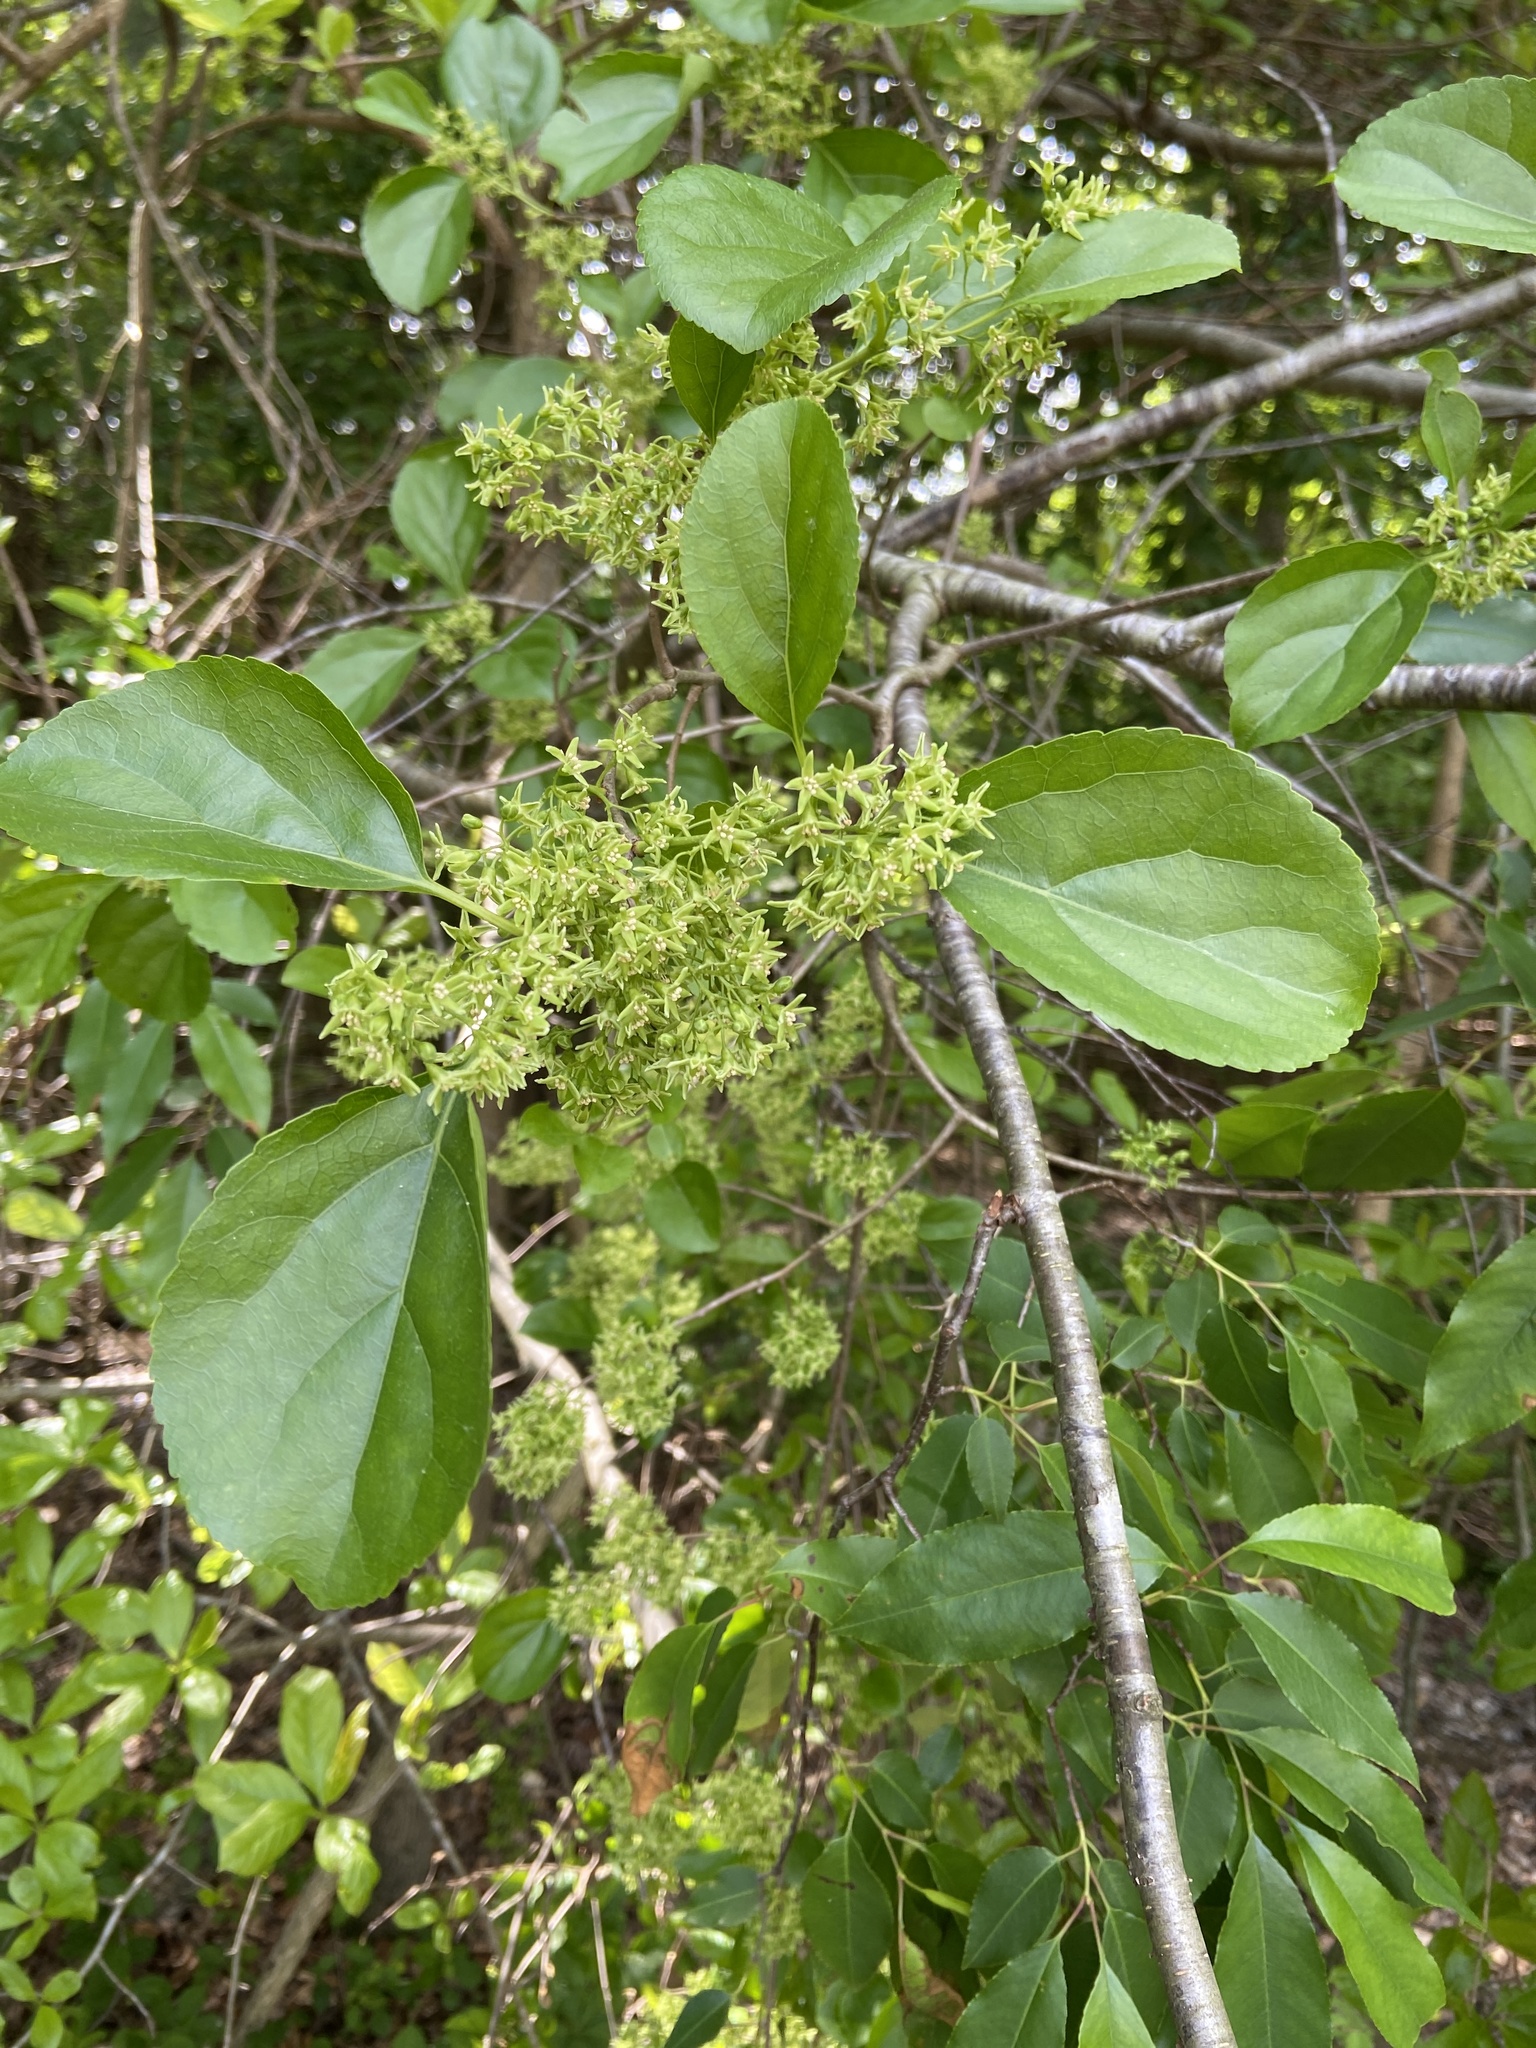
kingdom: Plantae
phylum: Tracheophyta
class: Magnoliopsida
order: Celastrales
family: Celastraceae
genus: Celastrus
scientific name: Celastrus orbiculatus
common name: Oriental bittersweet
